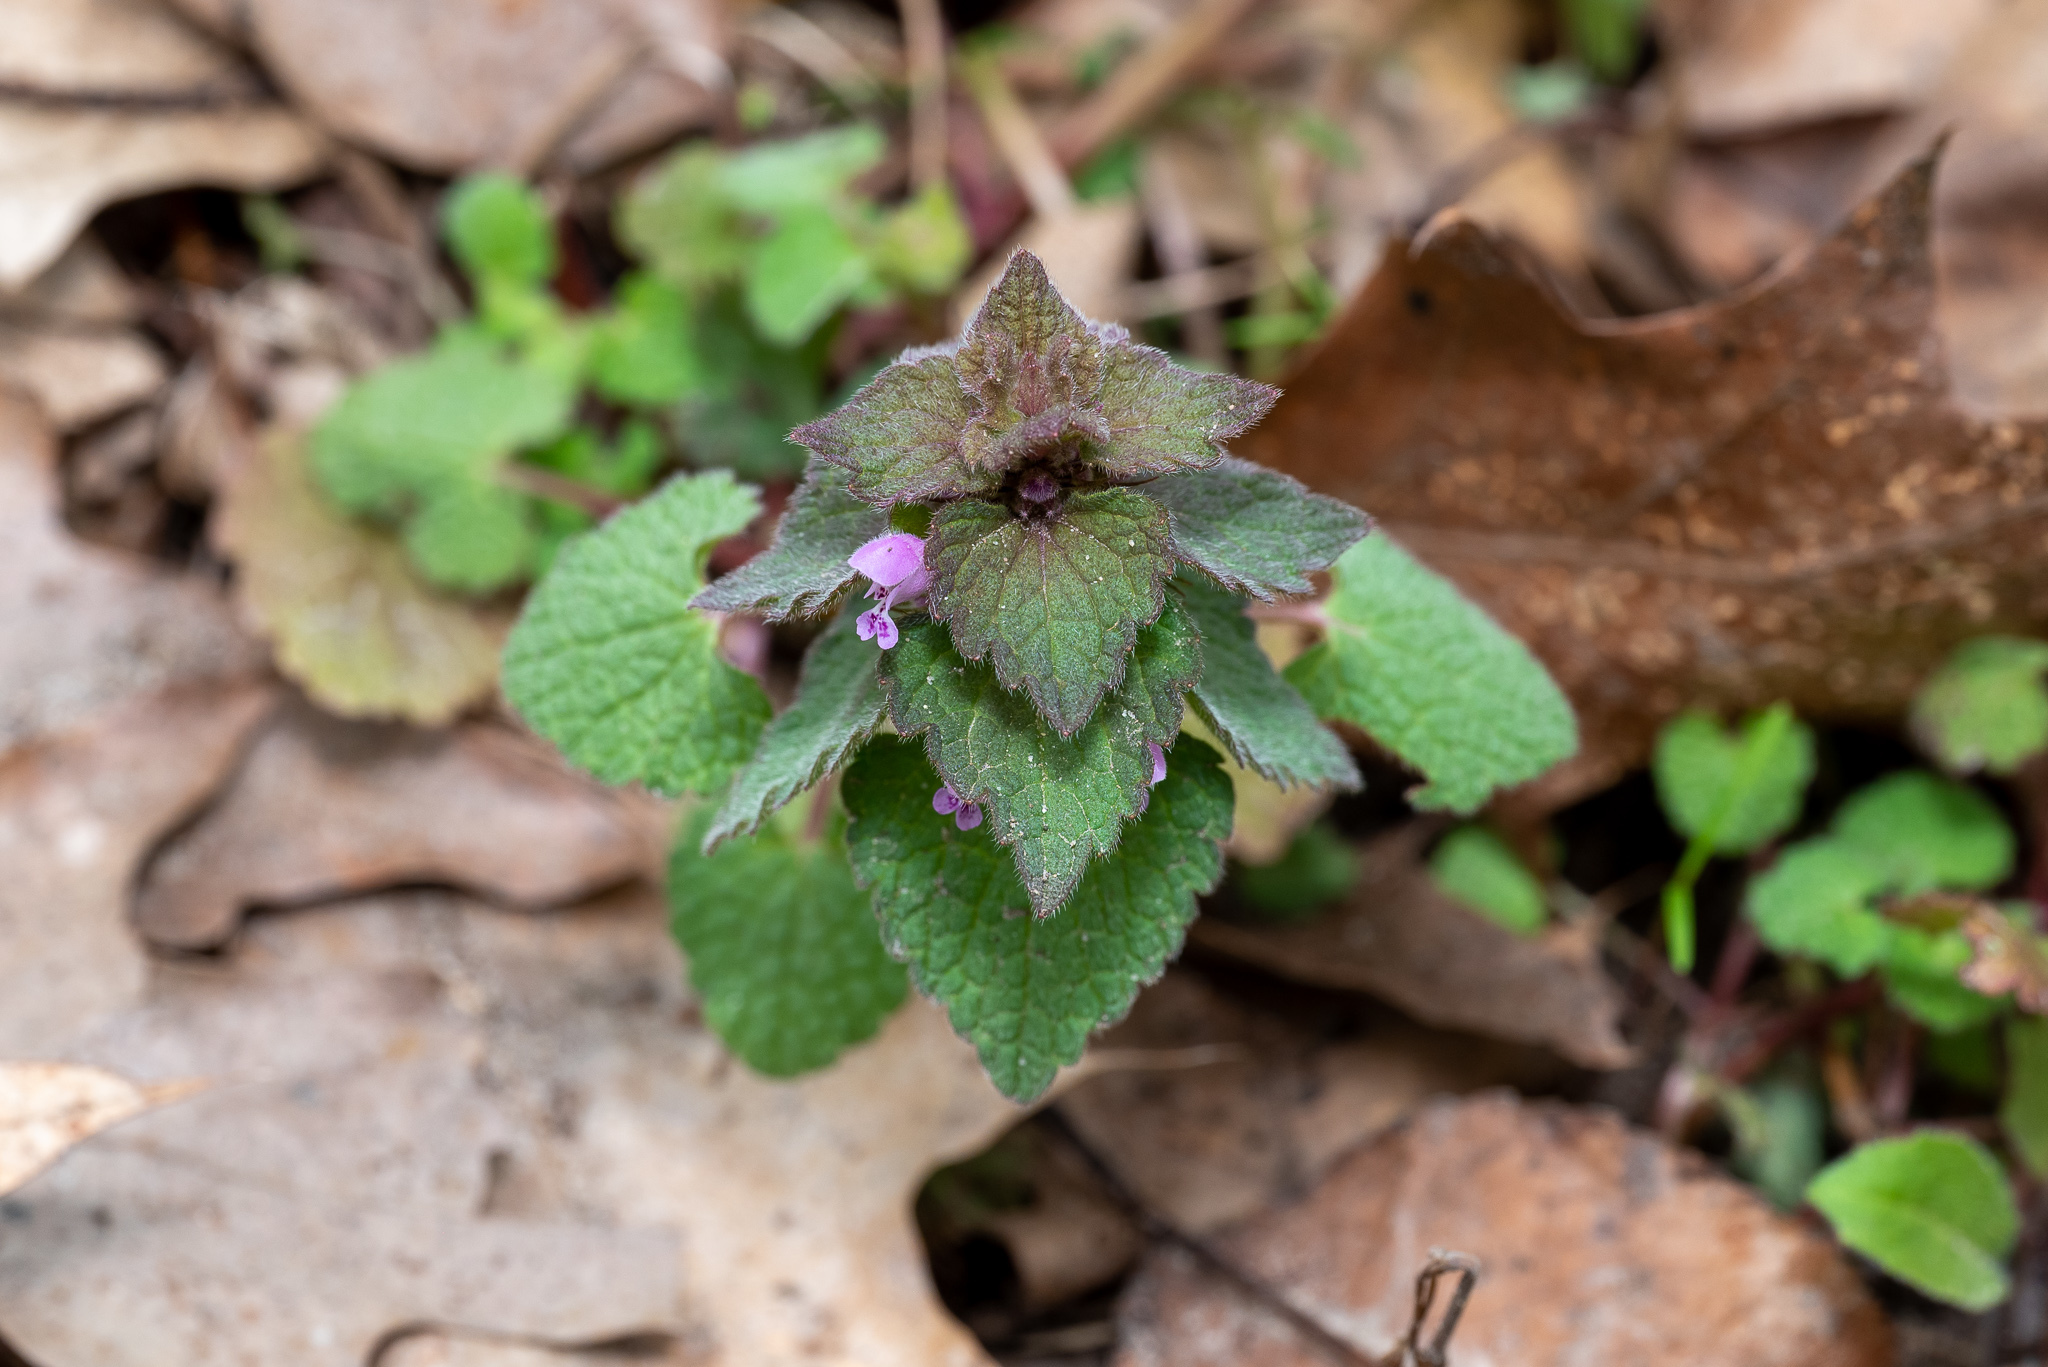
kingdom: Plantae
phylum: Tracheophyta
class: Magnoliopsida
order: Lamiales
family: Lamiaceae
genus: Lamium
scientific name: Lamium purpureum
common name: Red dead-nettle
